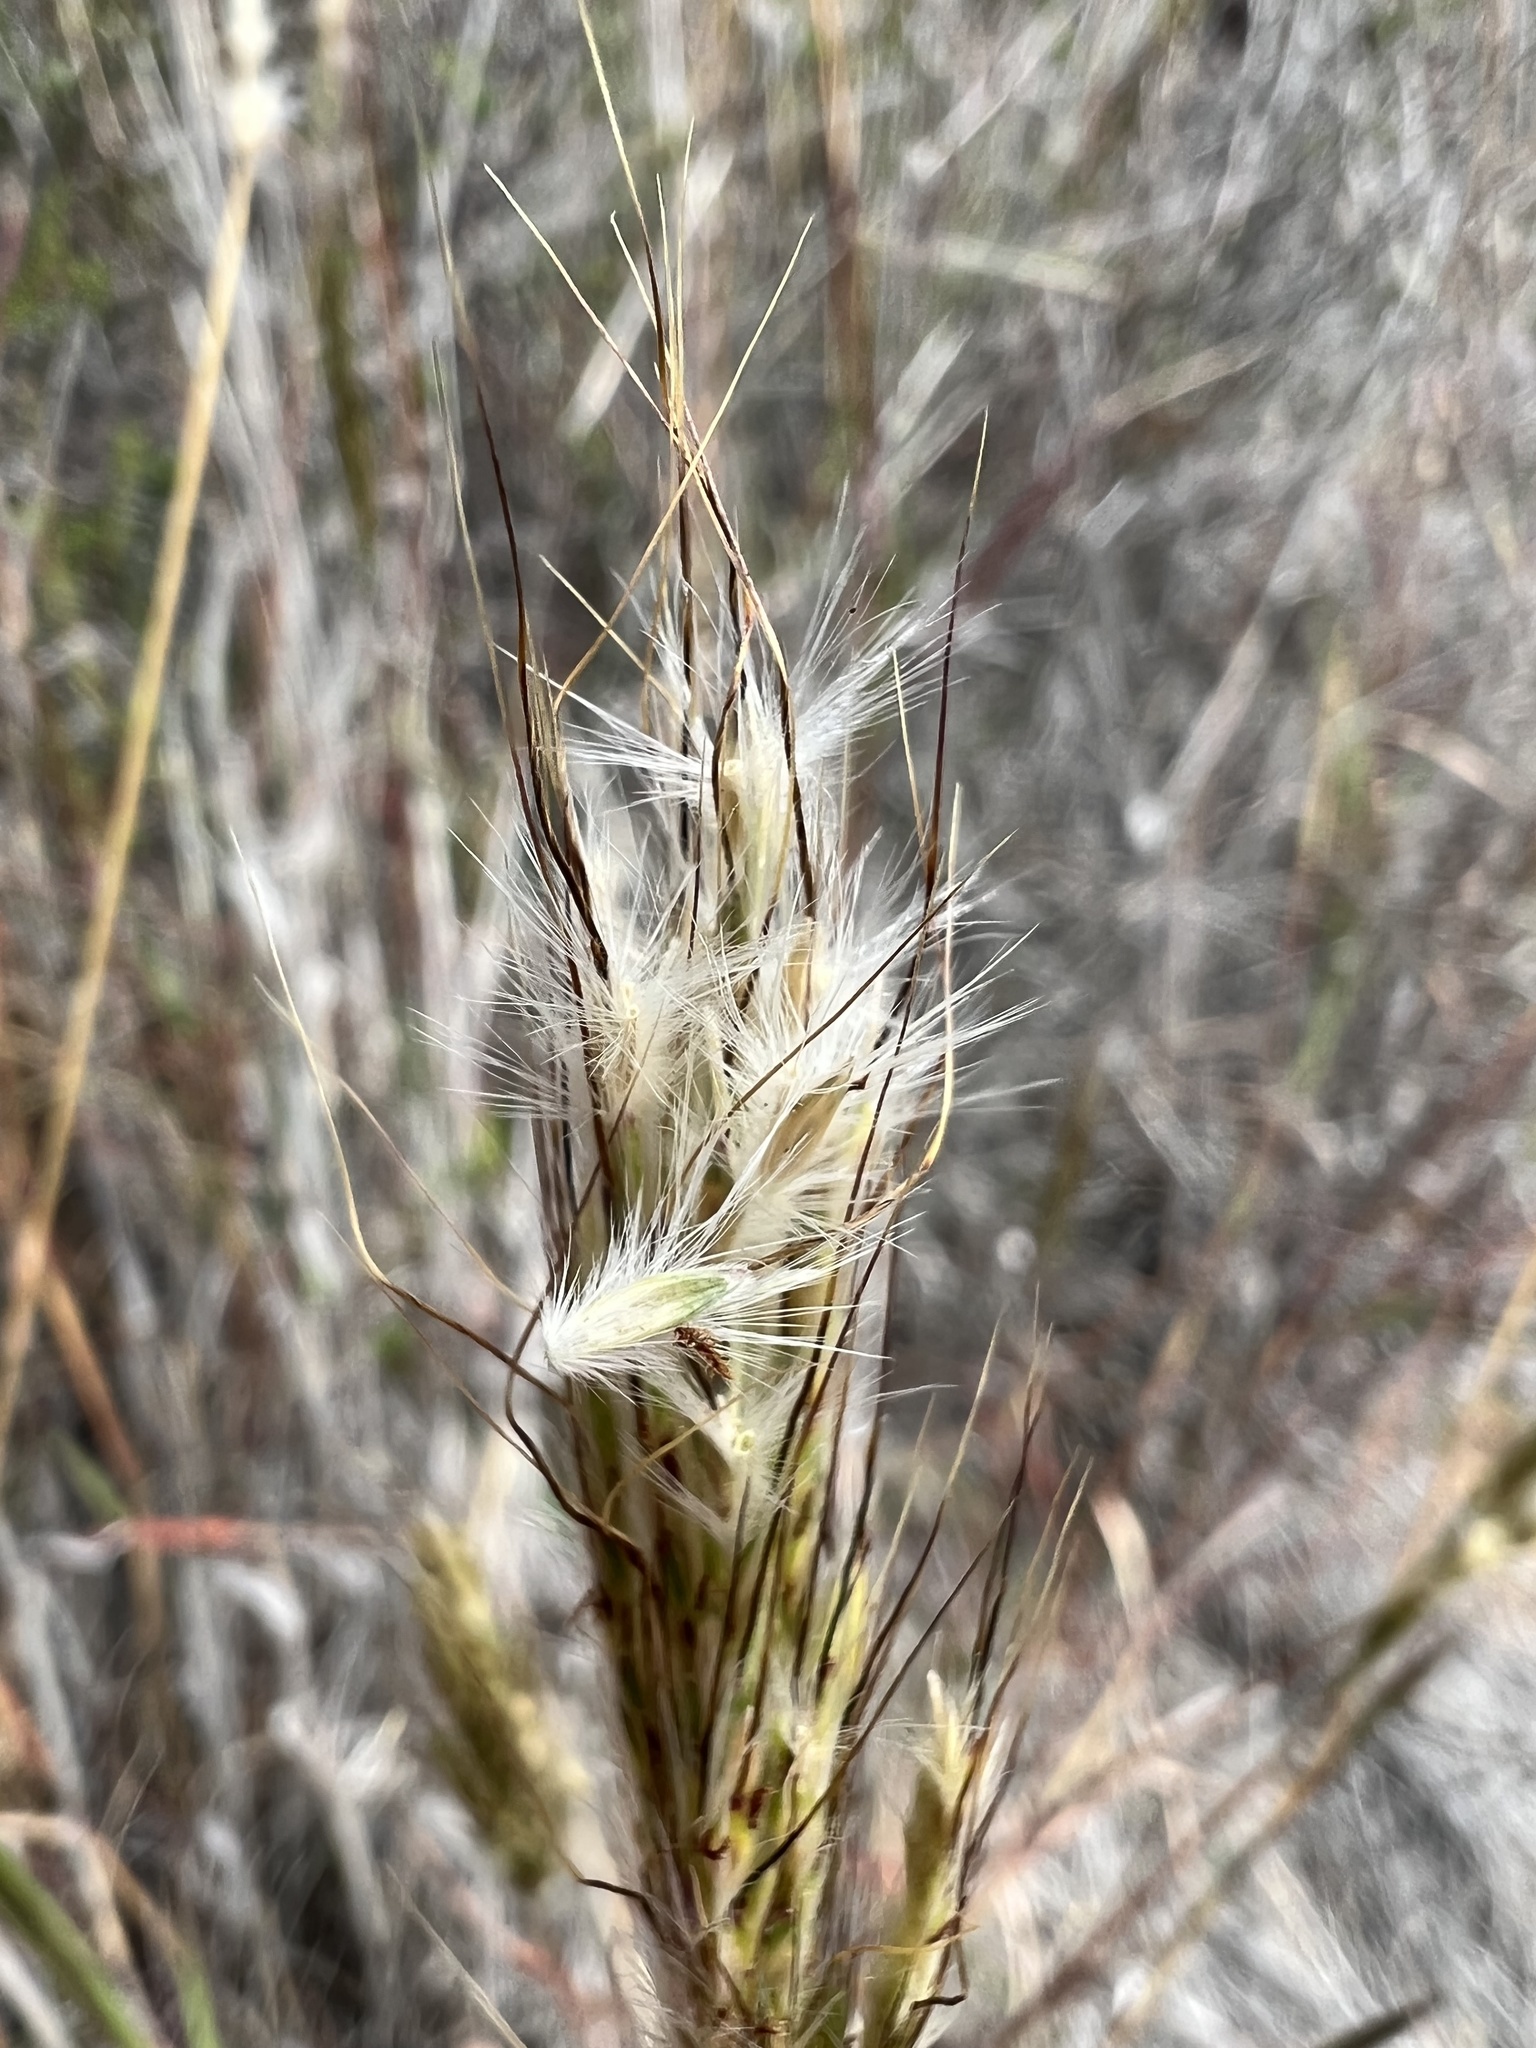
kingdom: Plantae
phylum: Tracheophyta
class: Liliopsida
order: Poales
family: Poaceae
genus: Bothriochloa
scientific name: Bothriochloa barbinodis
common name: Cane bluestem
